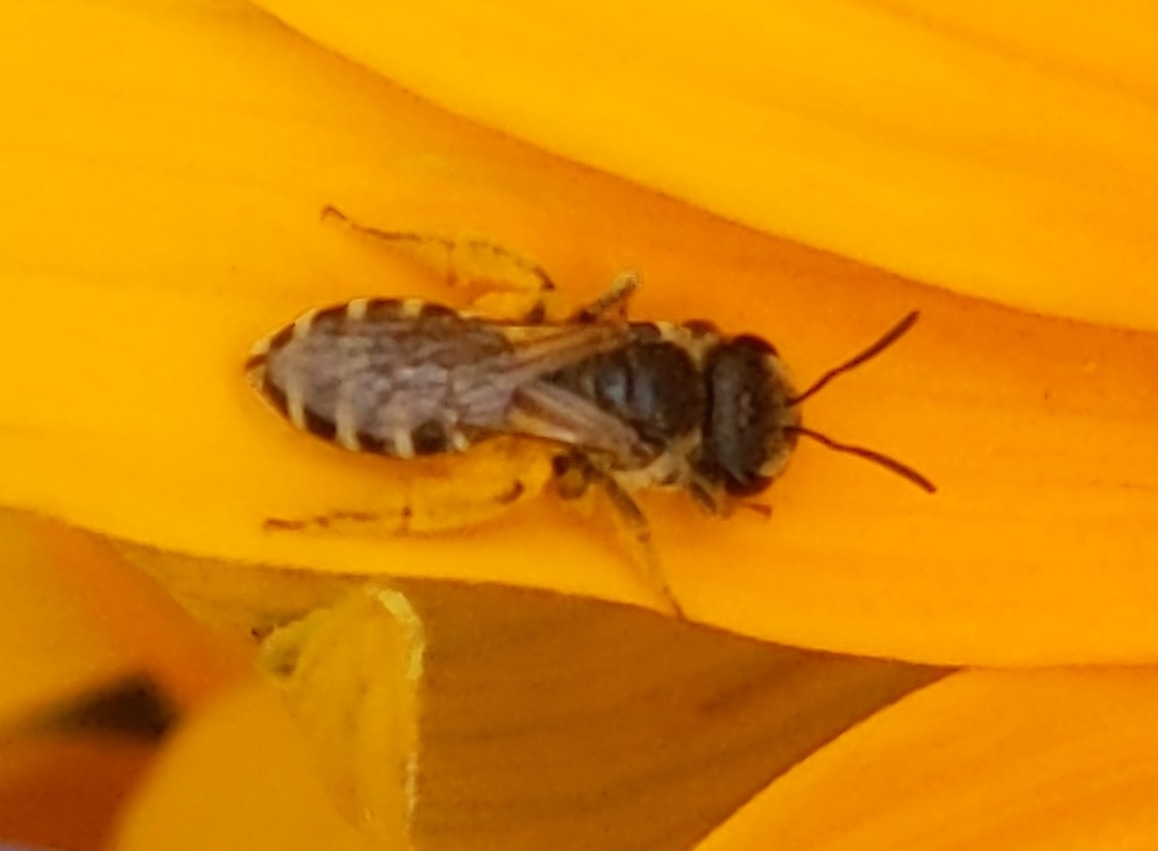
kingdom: Animalia
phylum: Arthropoda
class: Insecta
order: Hymenoptera
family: Halictidae
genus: Halictus
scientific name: Halictus ligatus
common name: Ligated furrow bee
